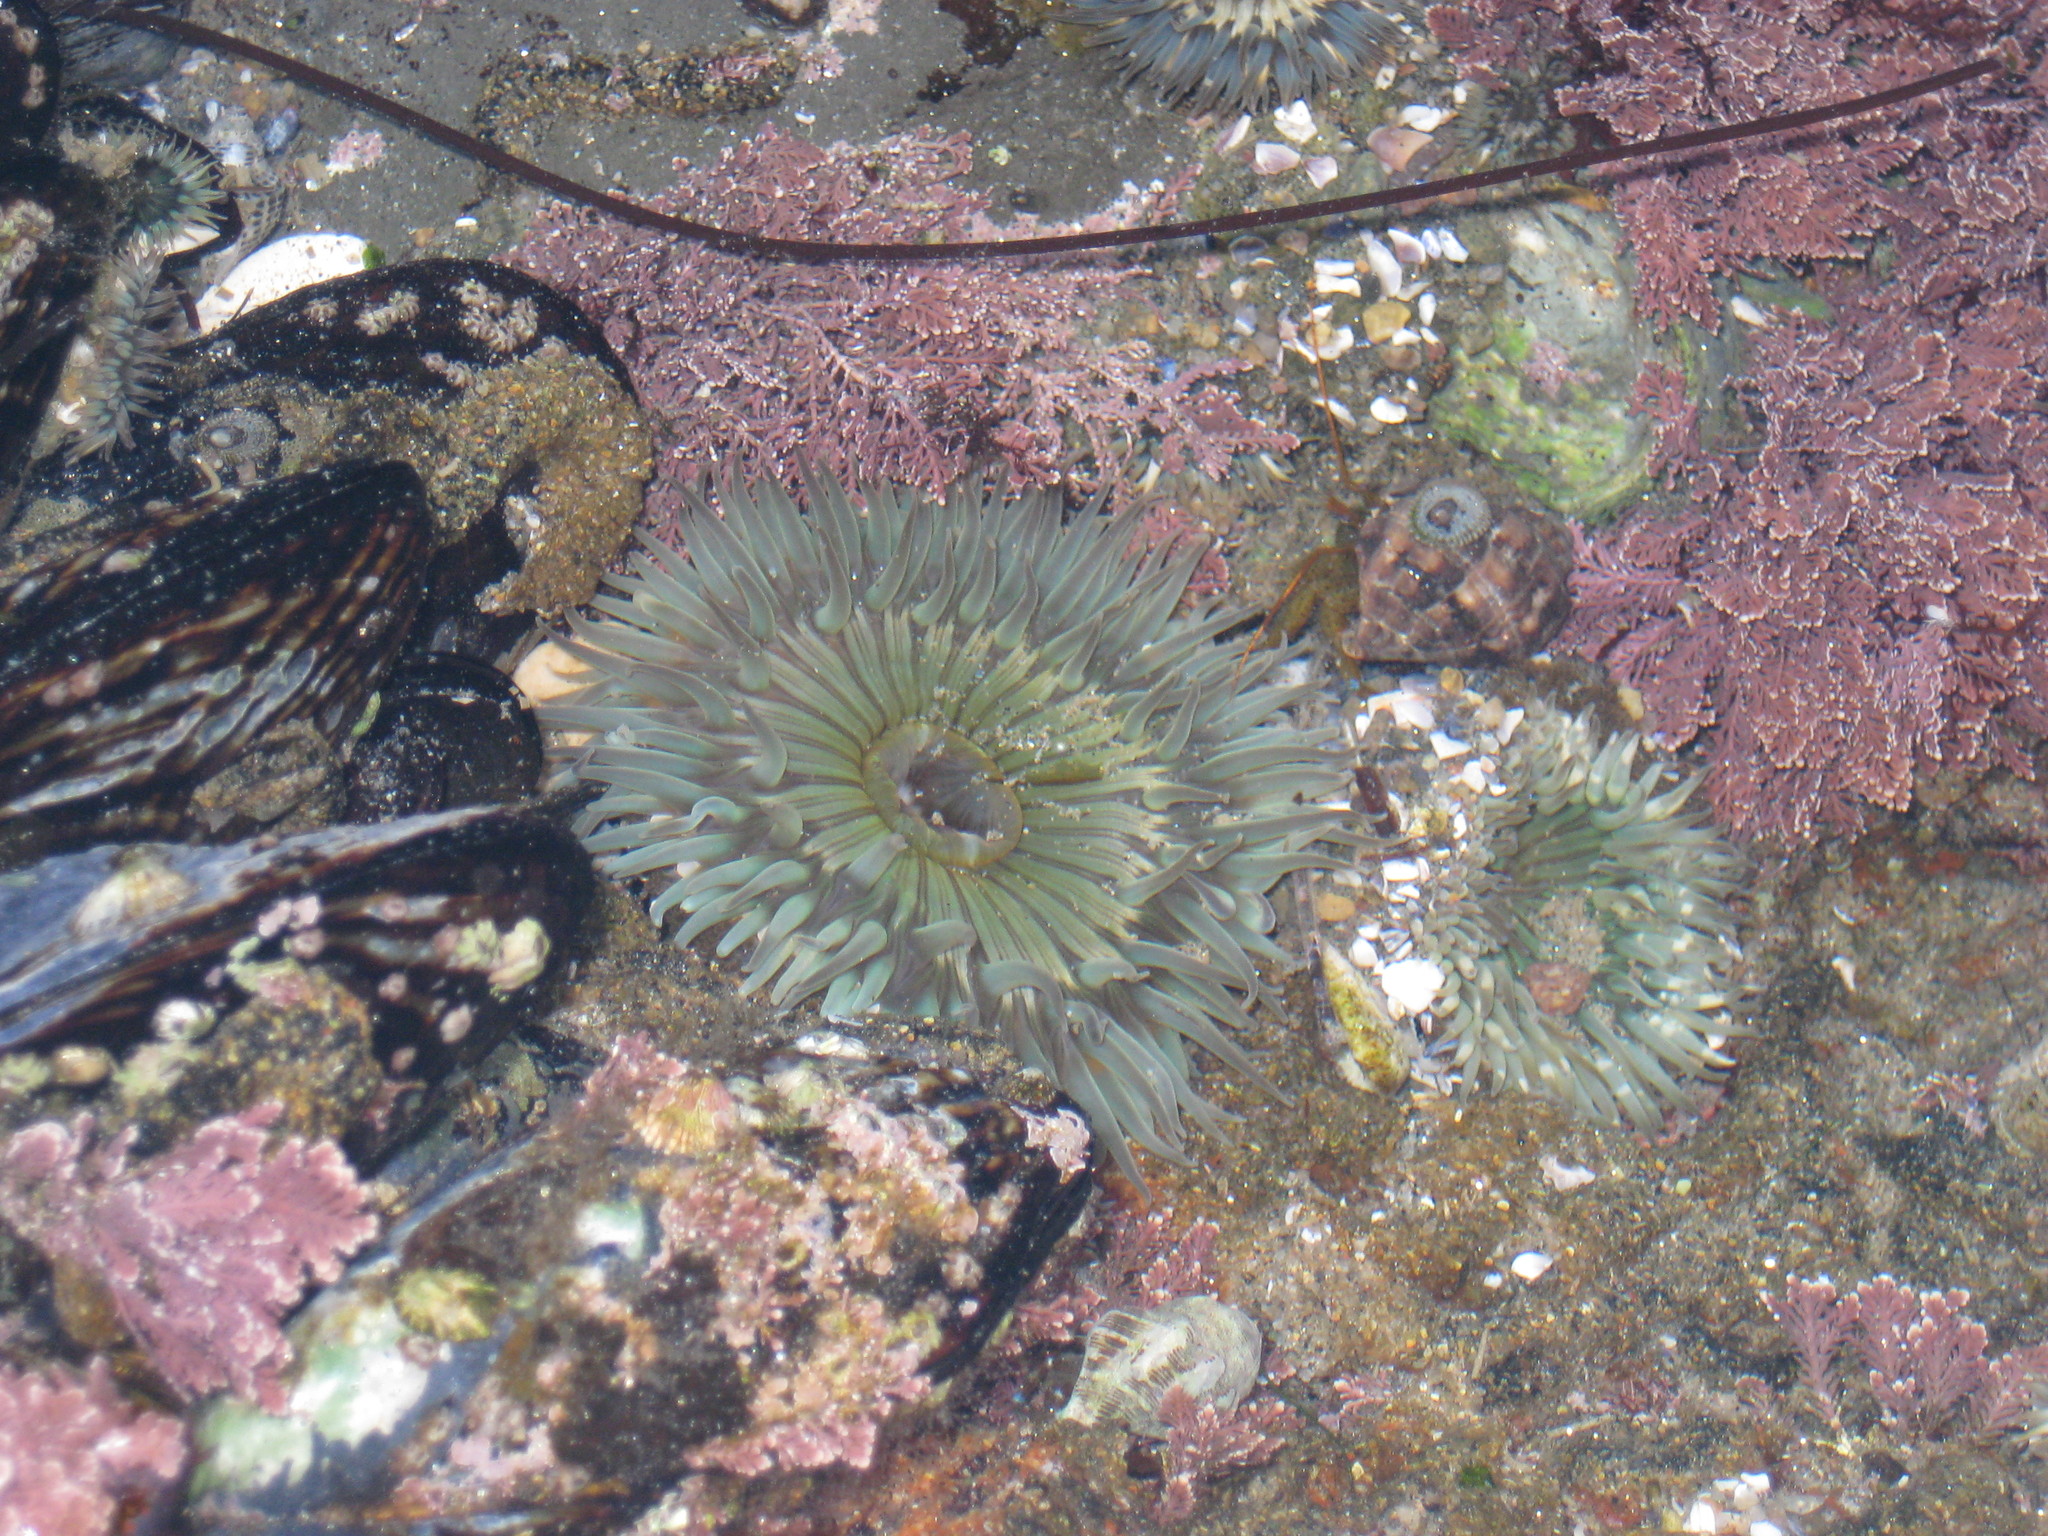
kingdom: Animalia
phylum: Cnidaria
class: Anthozoa
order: Actiniaria
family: Actiniidae
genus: Anthopleura
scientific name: Anthopleura sola
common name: Sun anemone
